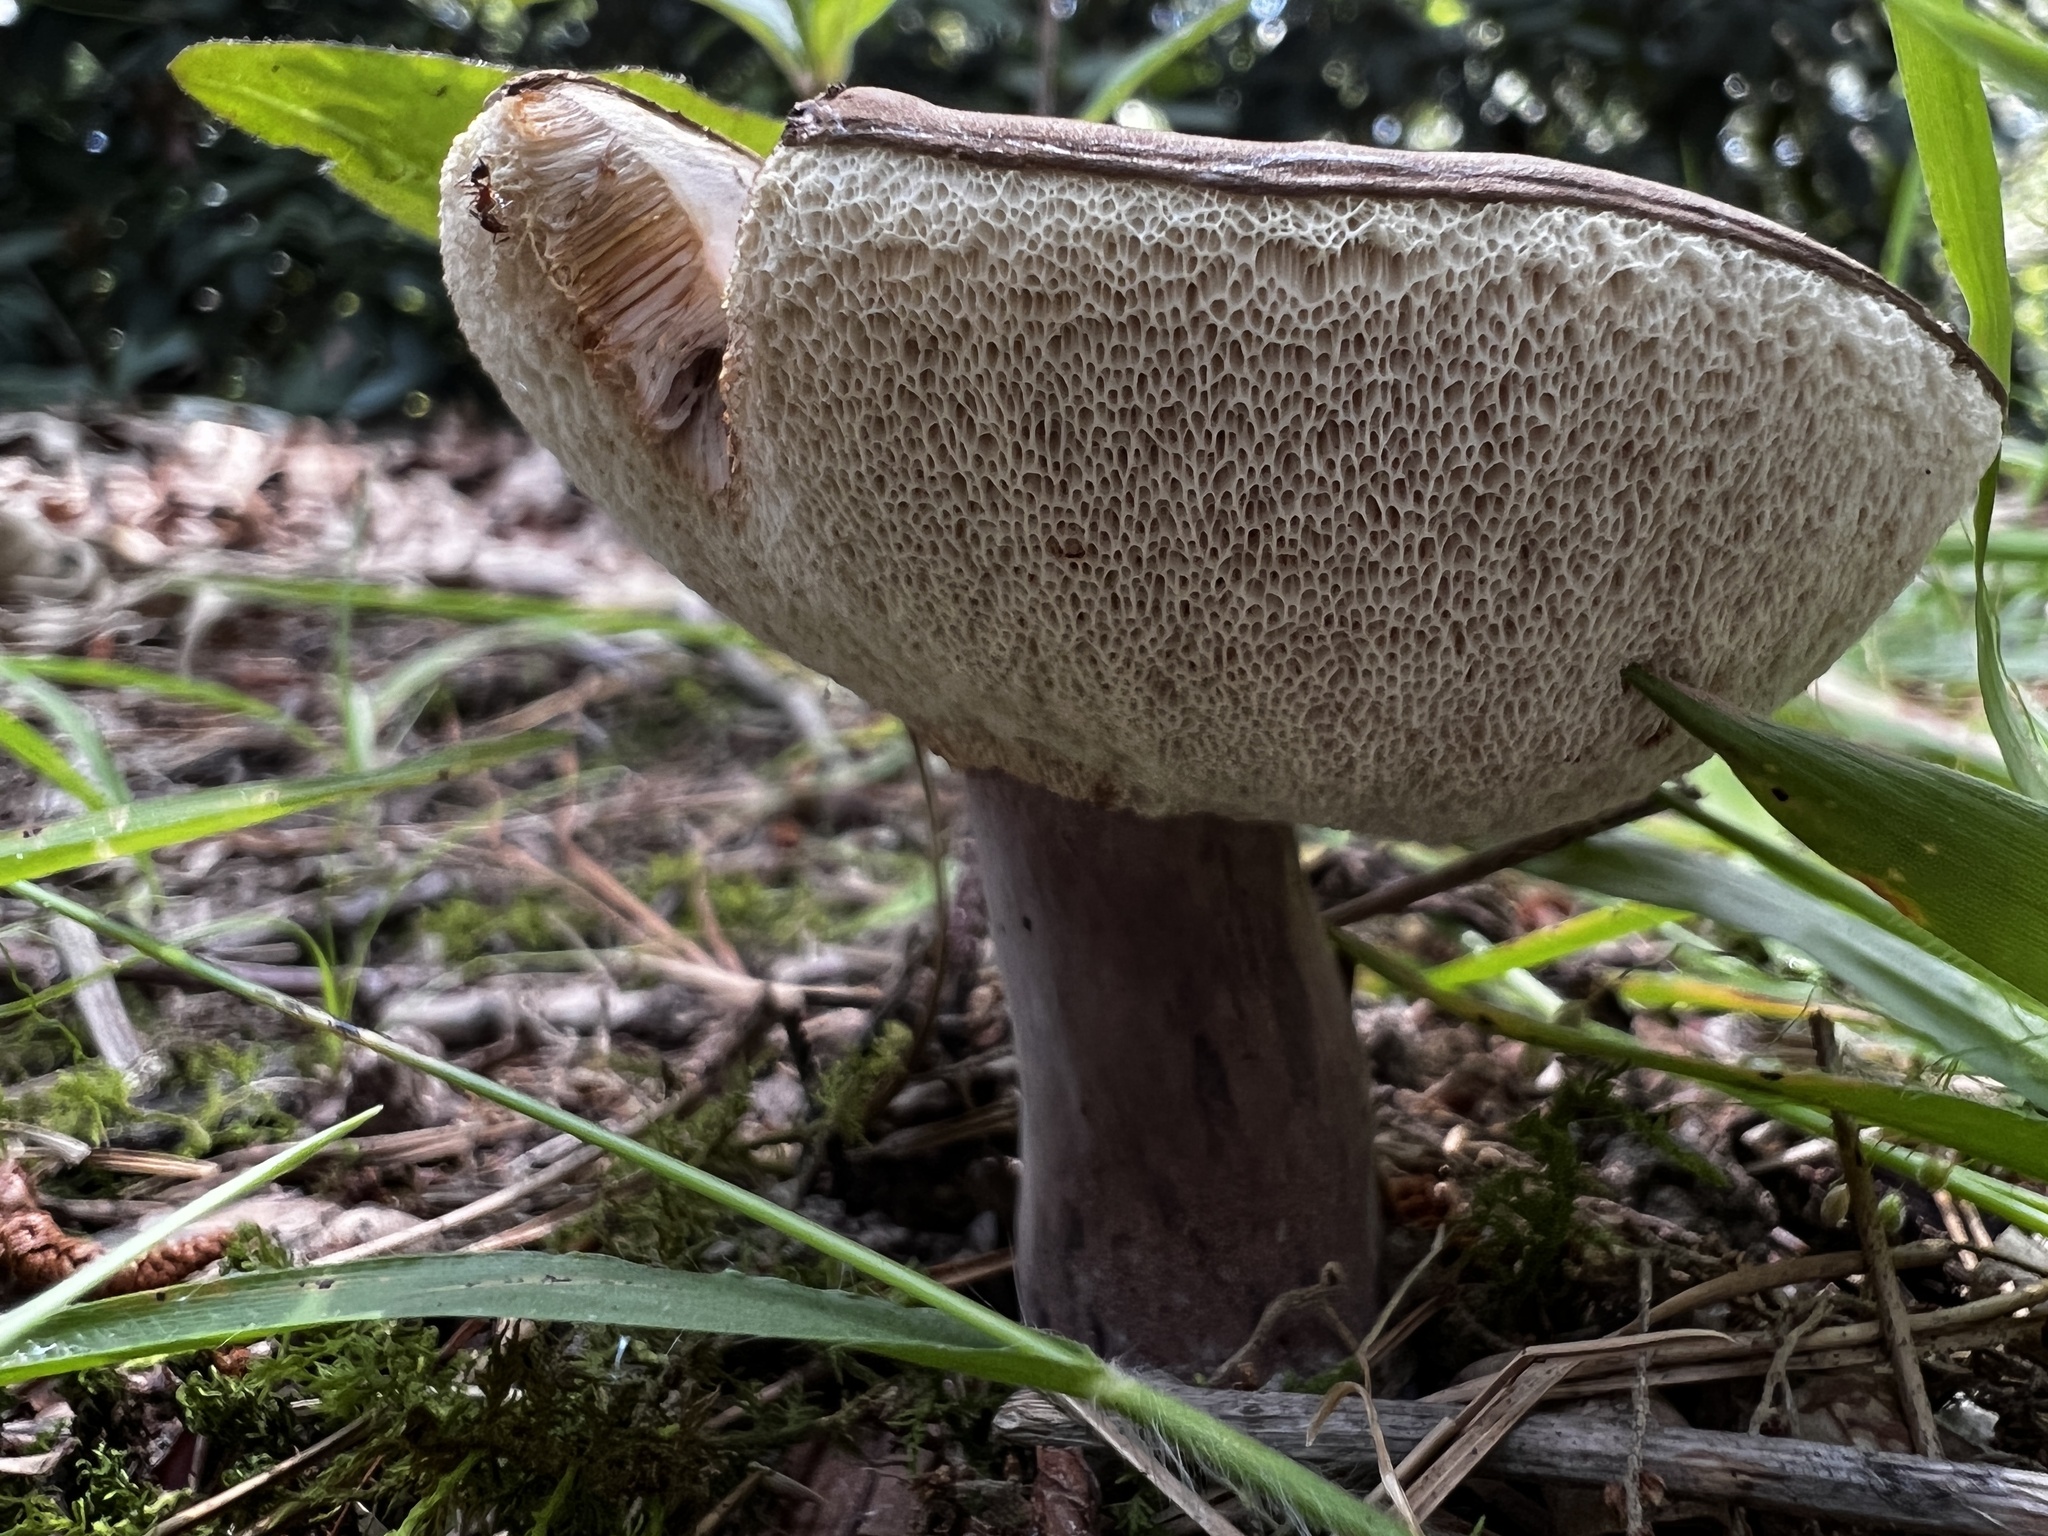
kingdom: Fungi
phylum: Basidiomycota
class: Agaricomycetes
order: Boletales
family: Boletaceae
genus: Tylopilus
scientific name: Tylopilus plumbeoviolaceus
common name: Violet gray bolete
